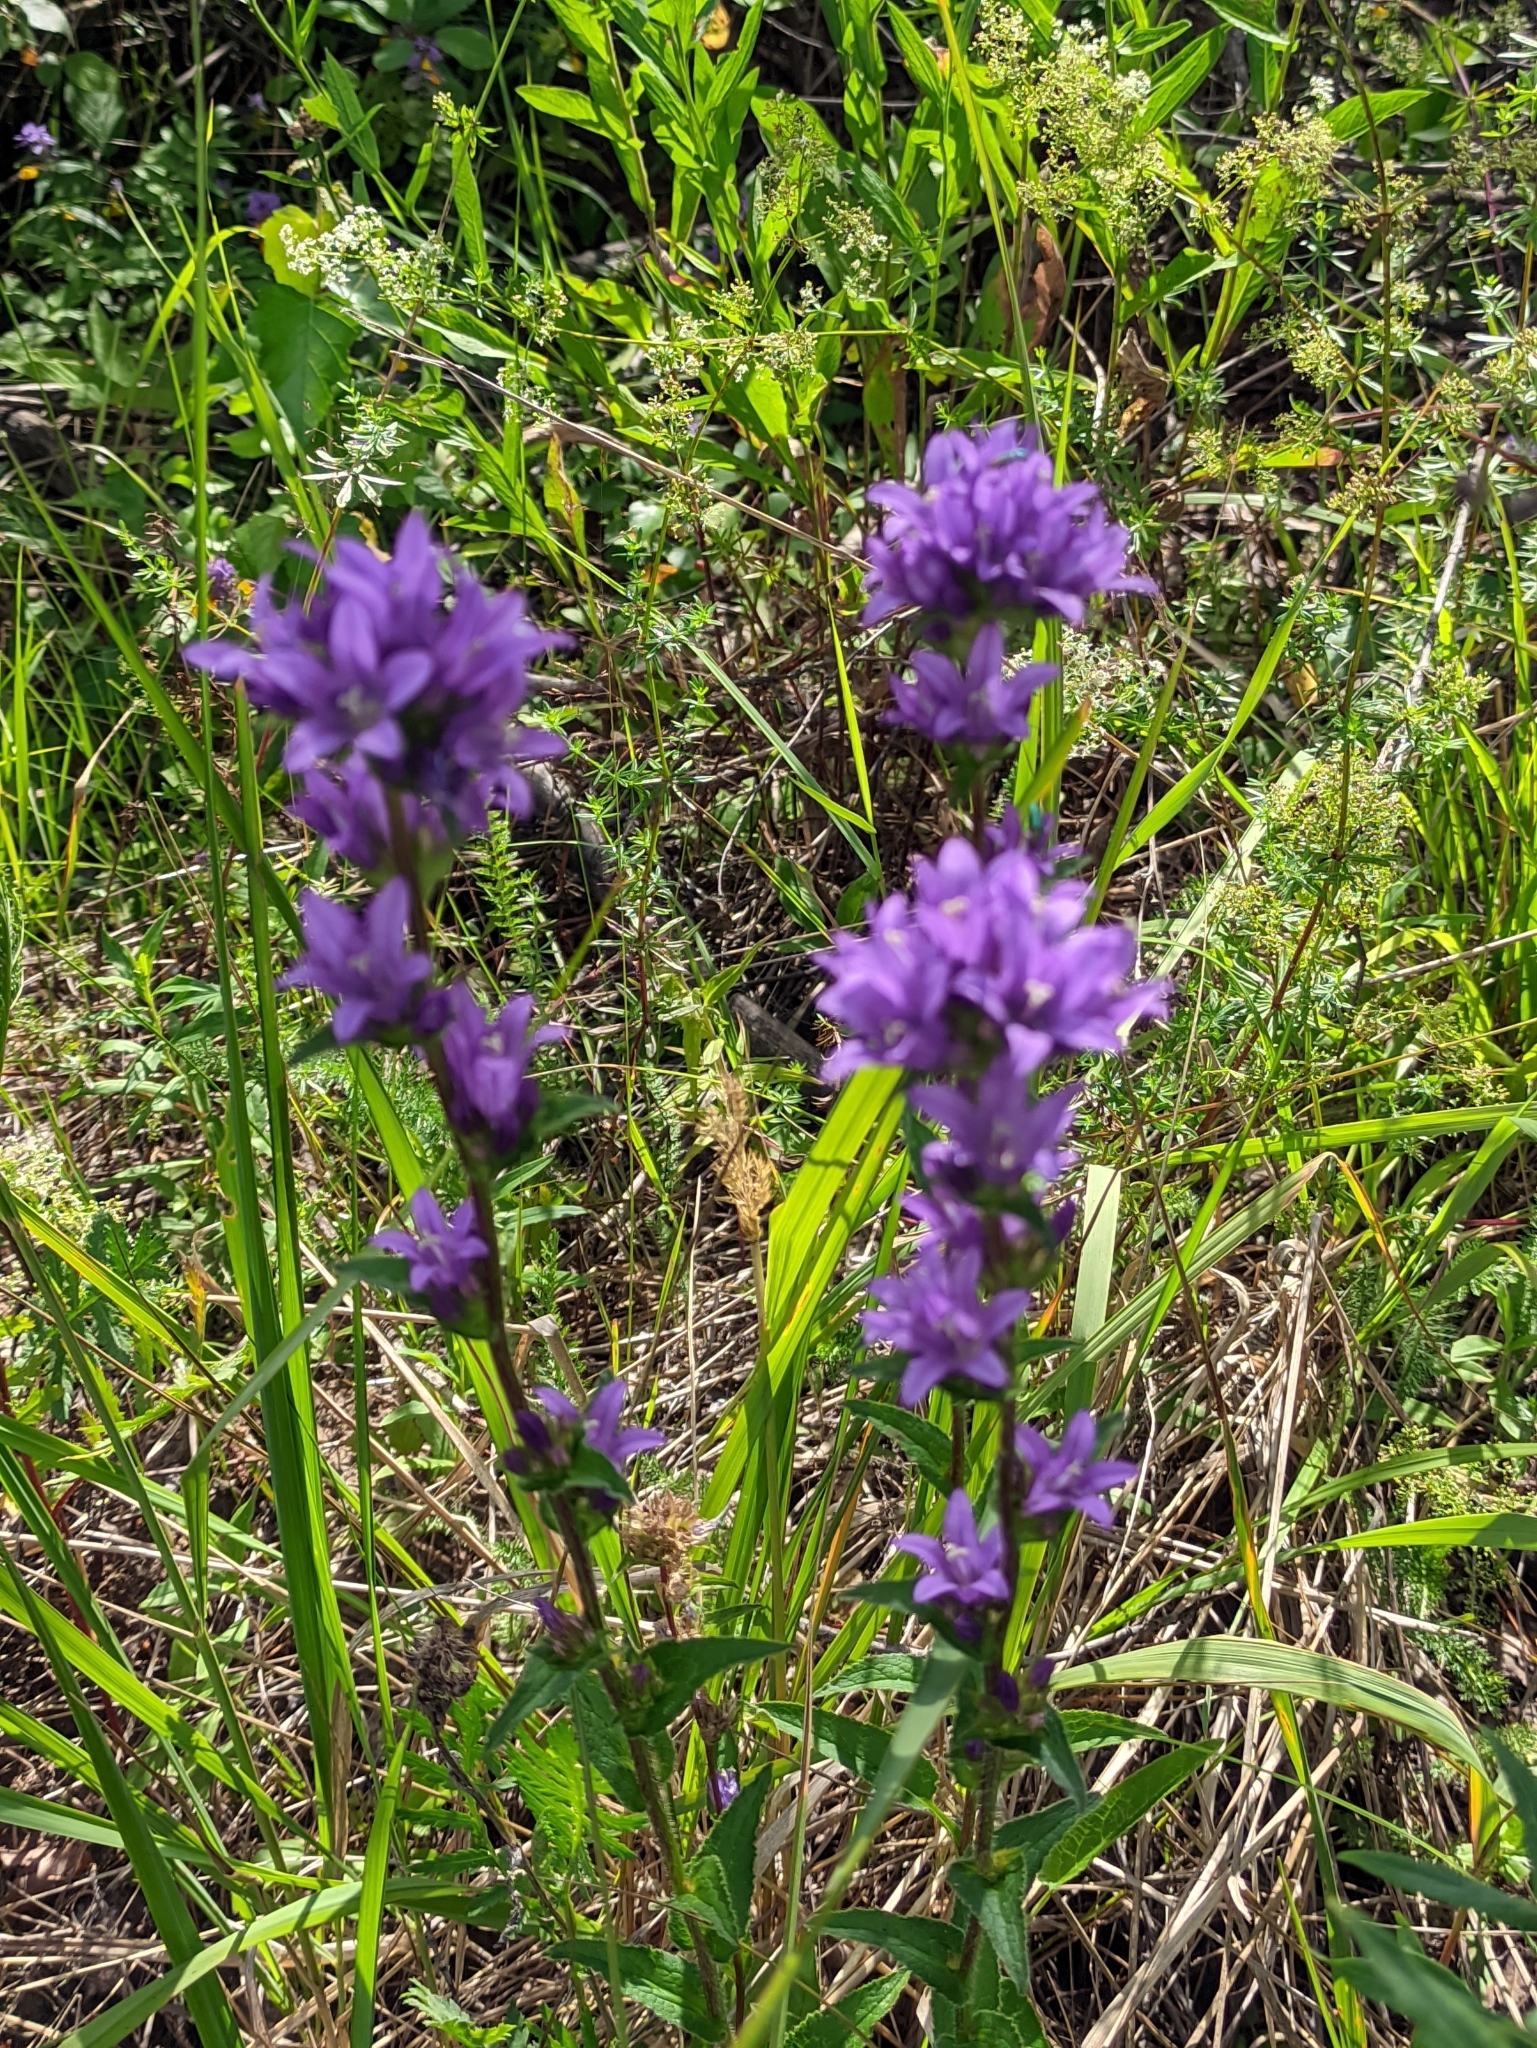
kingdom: Plantae
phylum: Tracheophyta
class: Magnoliopsida
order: Asterales
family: Campanulaceae
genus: Campanula
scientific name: Campanula glomerata
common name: Clustered bellflower
